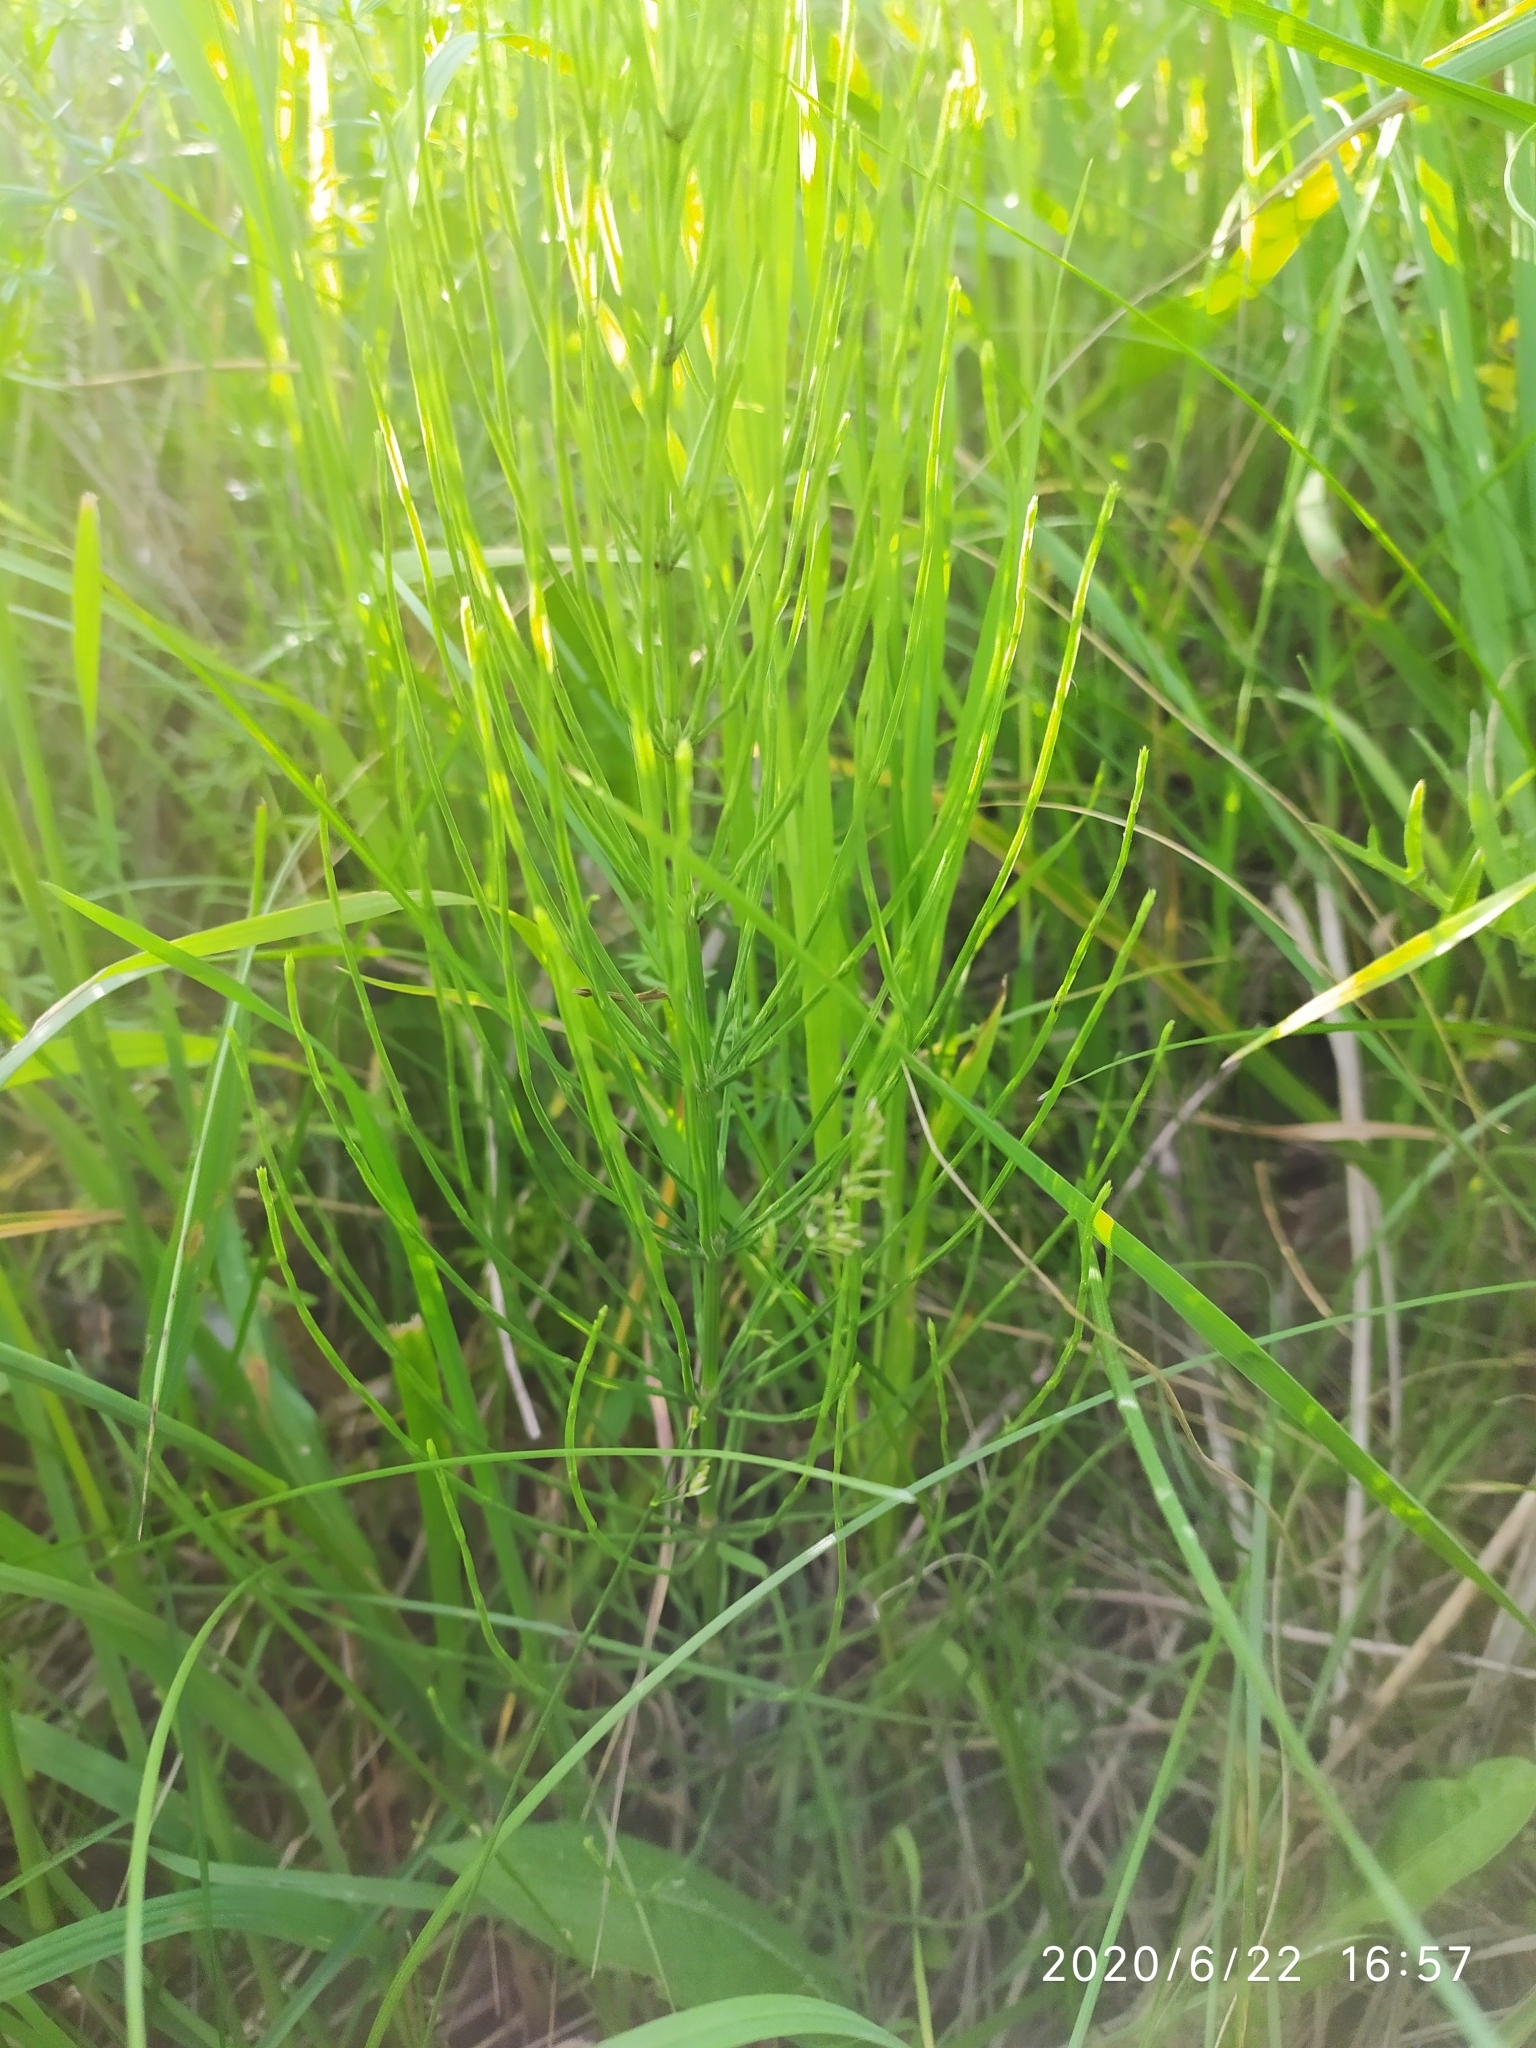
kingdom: Plantae
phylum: Tracheophyta
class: Polypodiopsida
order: Equisetales
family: Equisetaceae
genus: Equisetum
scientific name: Equisetum arvense
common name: Field horsetail
